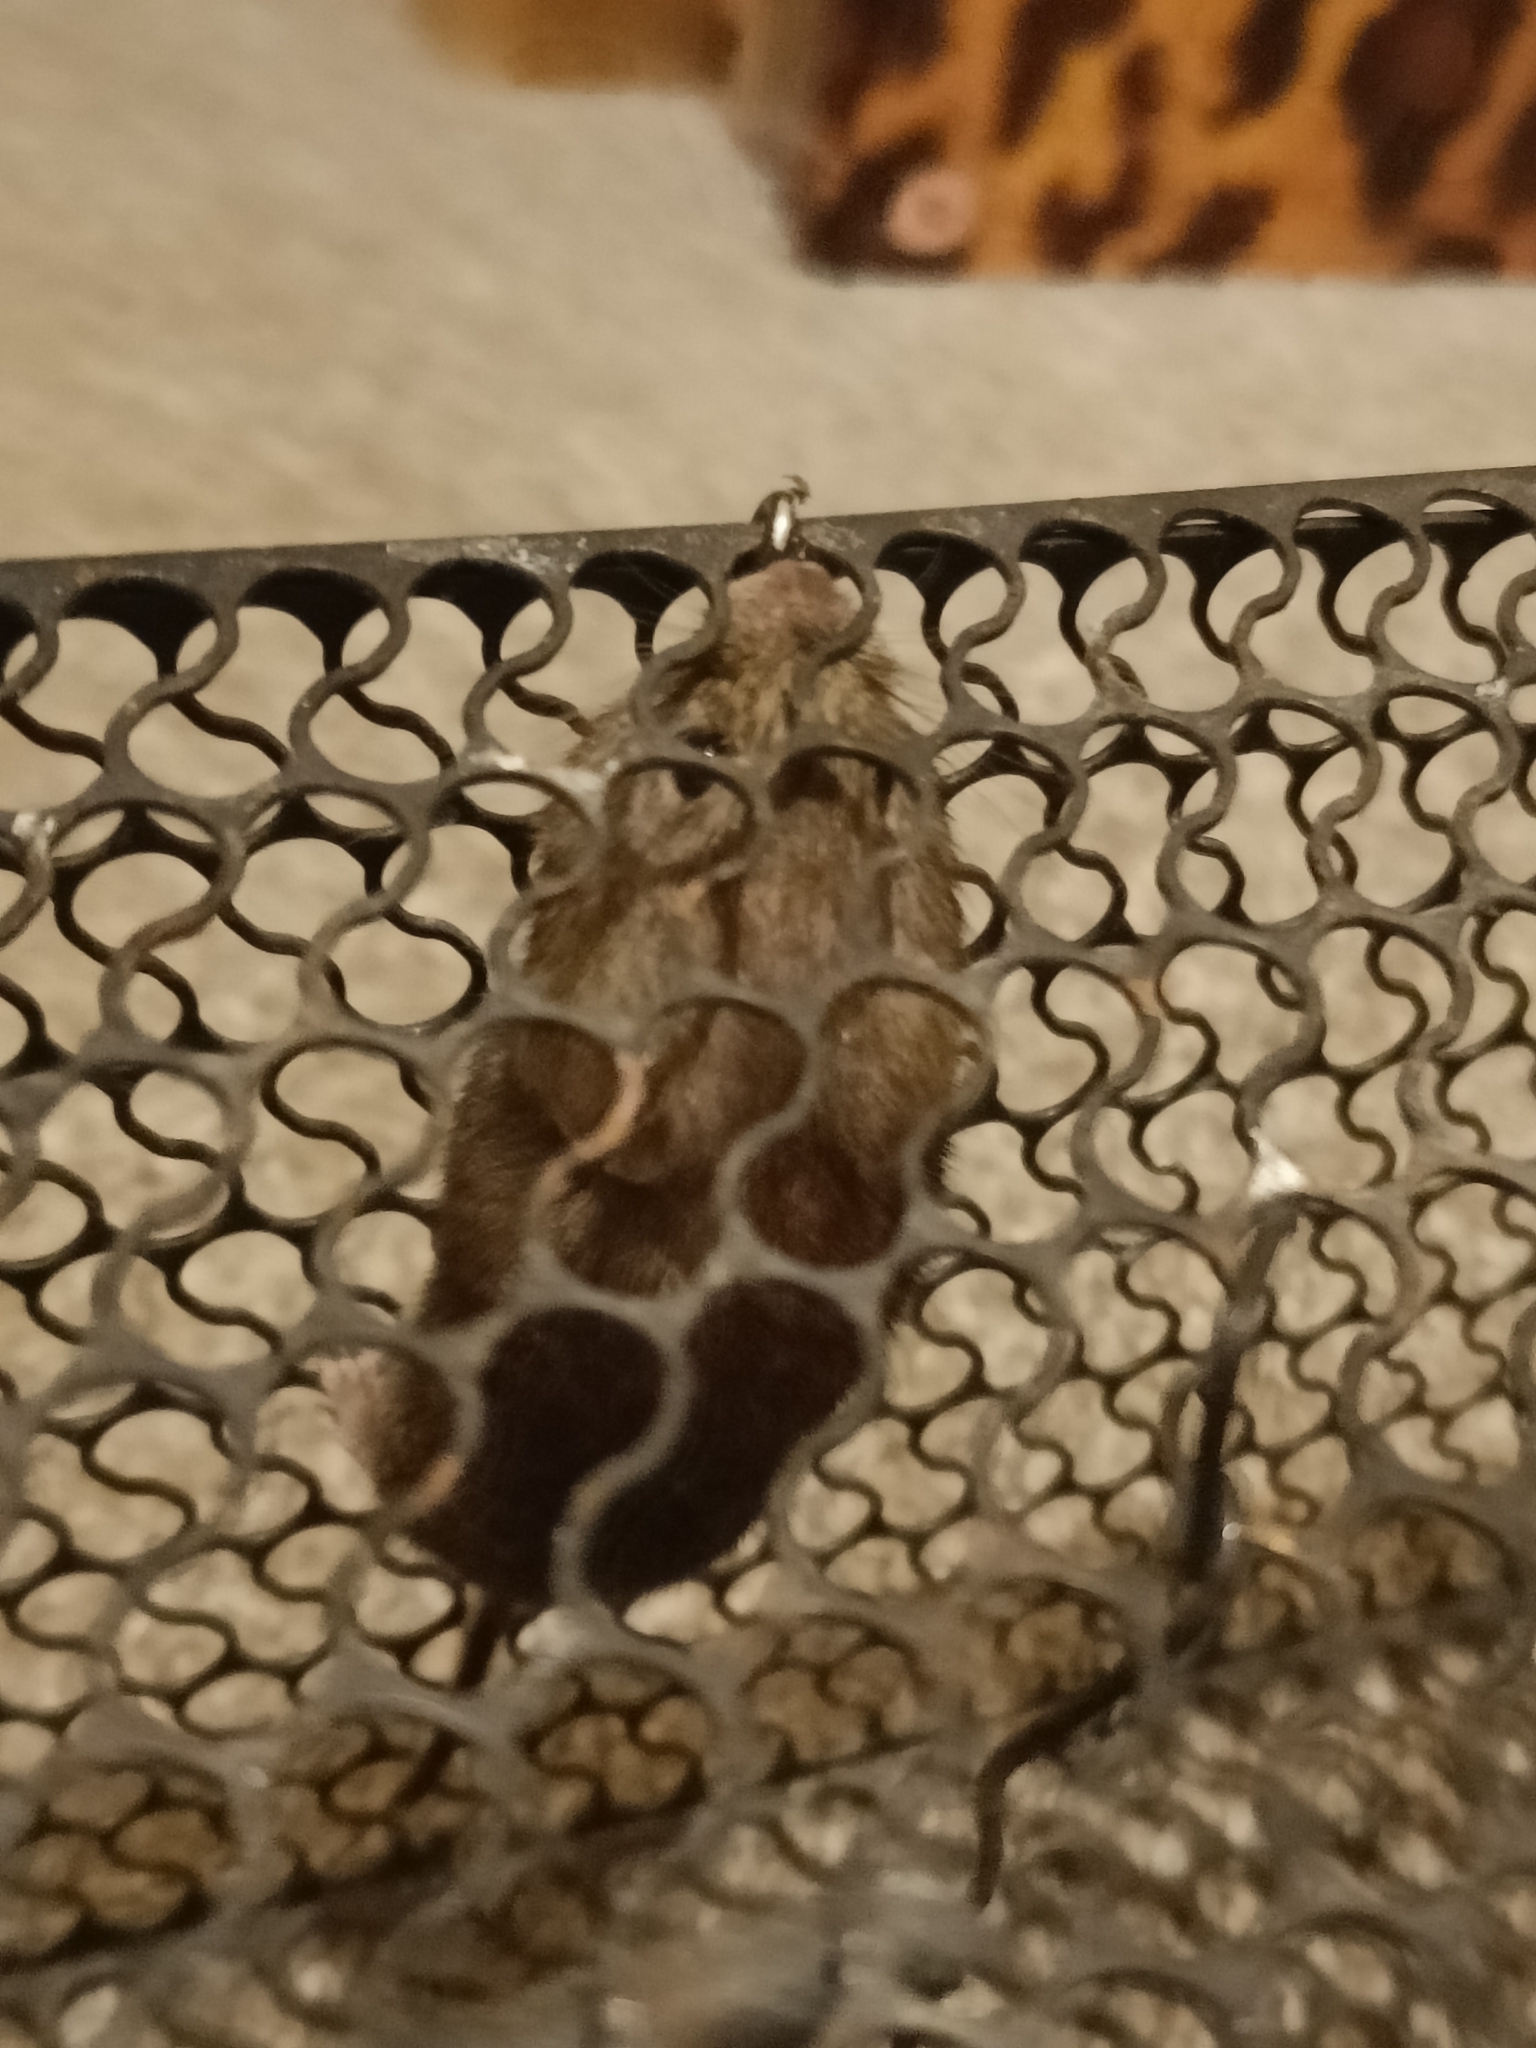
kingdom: Animalia
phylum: Chordata
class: Mammalia
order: Rodentia
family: Cricetidae
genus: Myodes
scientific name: Myodes glareolus
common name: Bank vole
